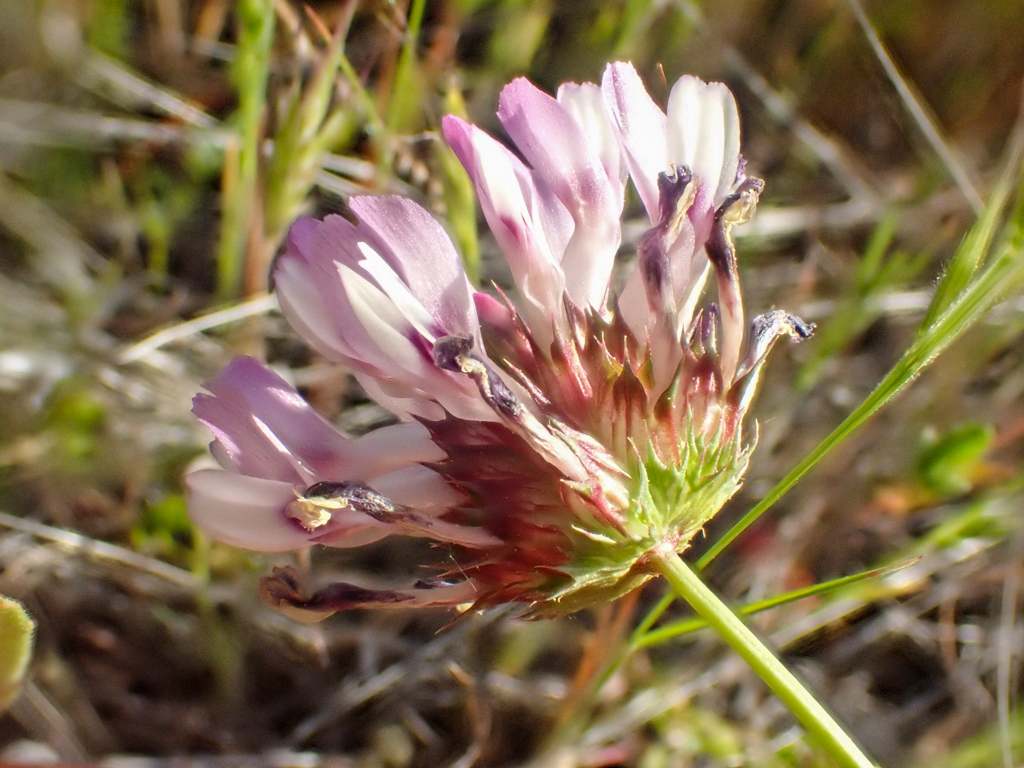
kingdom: Plantae
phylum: Tracheophyta
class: Magnoliopsida
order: Fabales
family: Fabaceae
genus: Trifolium
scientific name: Trifolium willdenovii
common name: Tomcat clover
